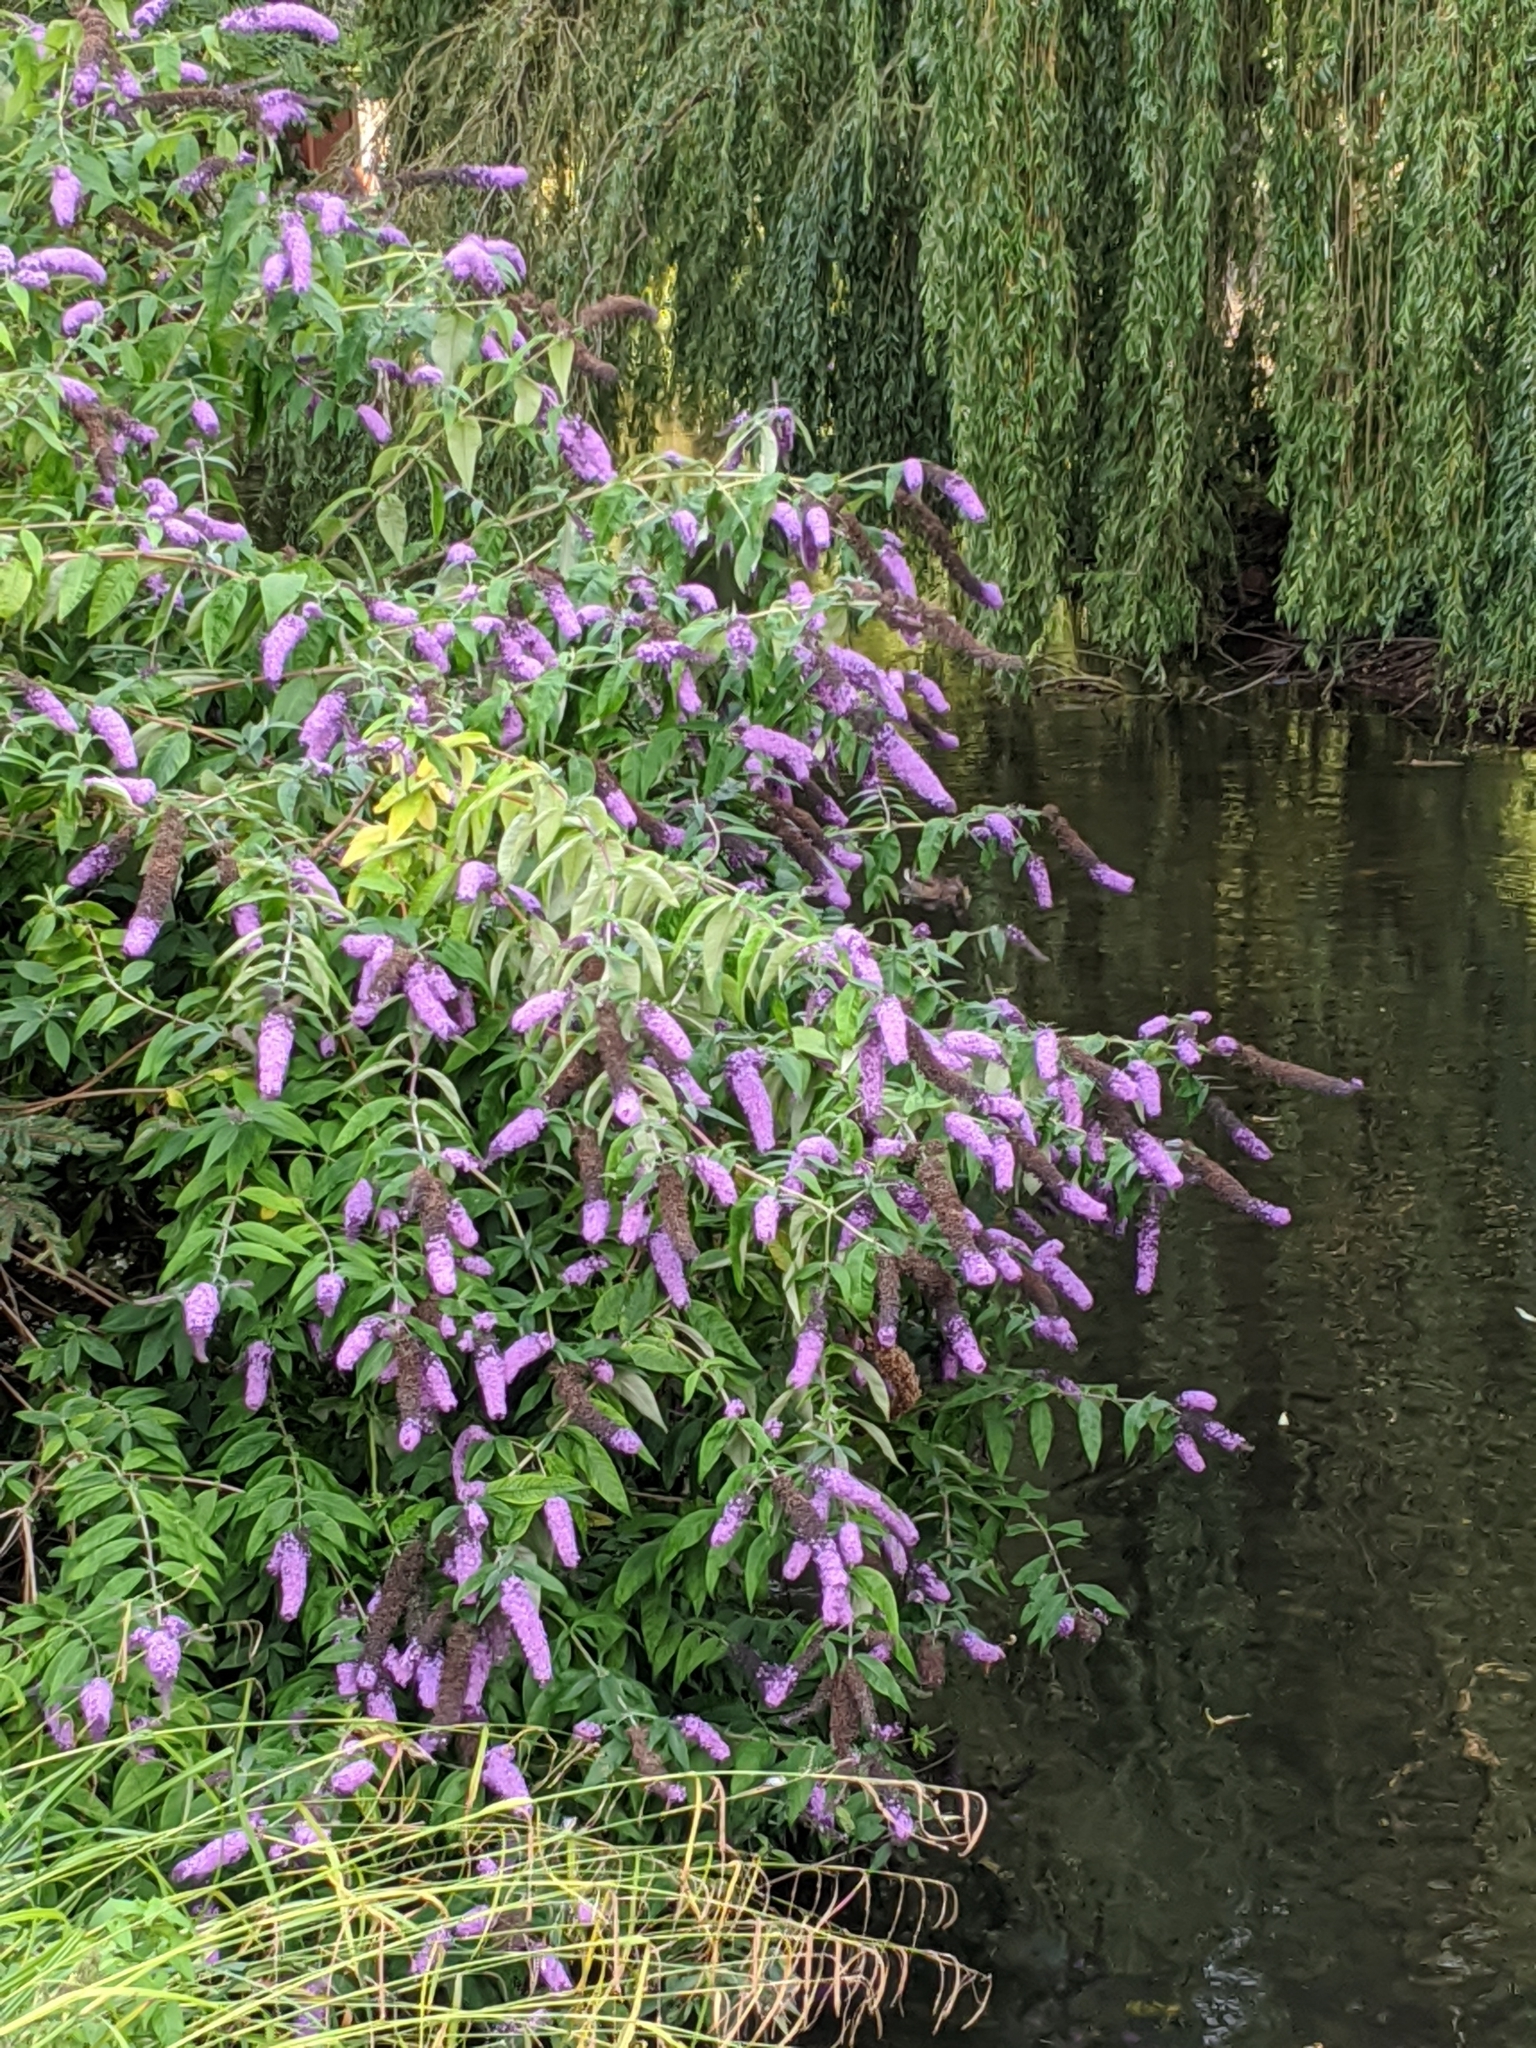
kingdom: Plantae
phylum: Tracheophyta
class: Magnoliopsida
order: Lamiales
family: Scrophulariaceae
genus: Buddleja
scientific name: Buddleja davidii
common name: Butterfly-bush
